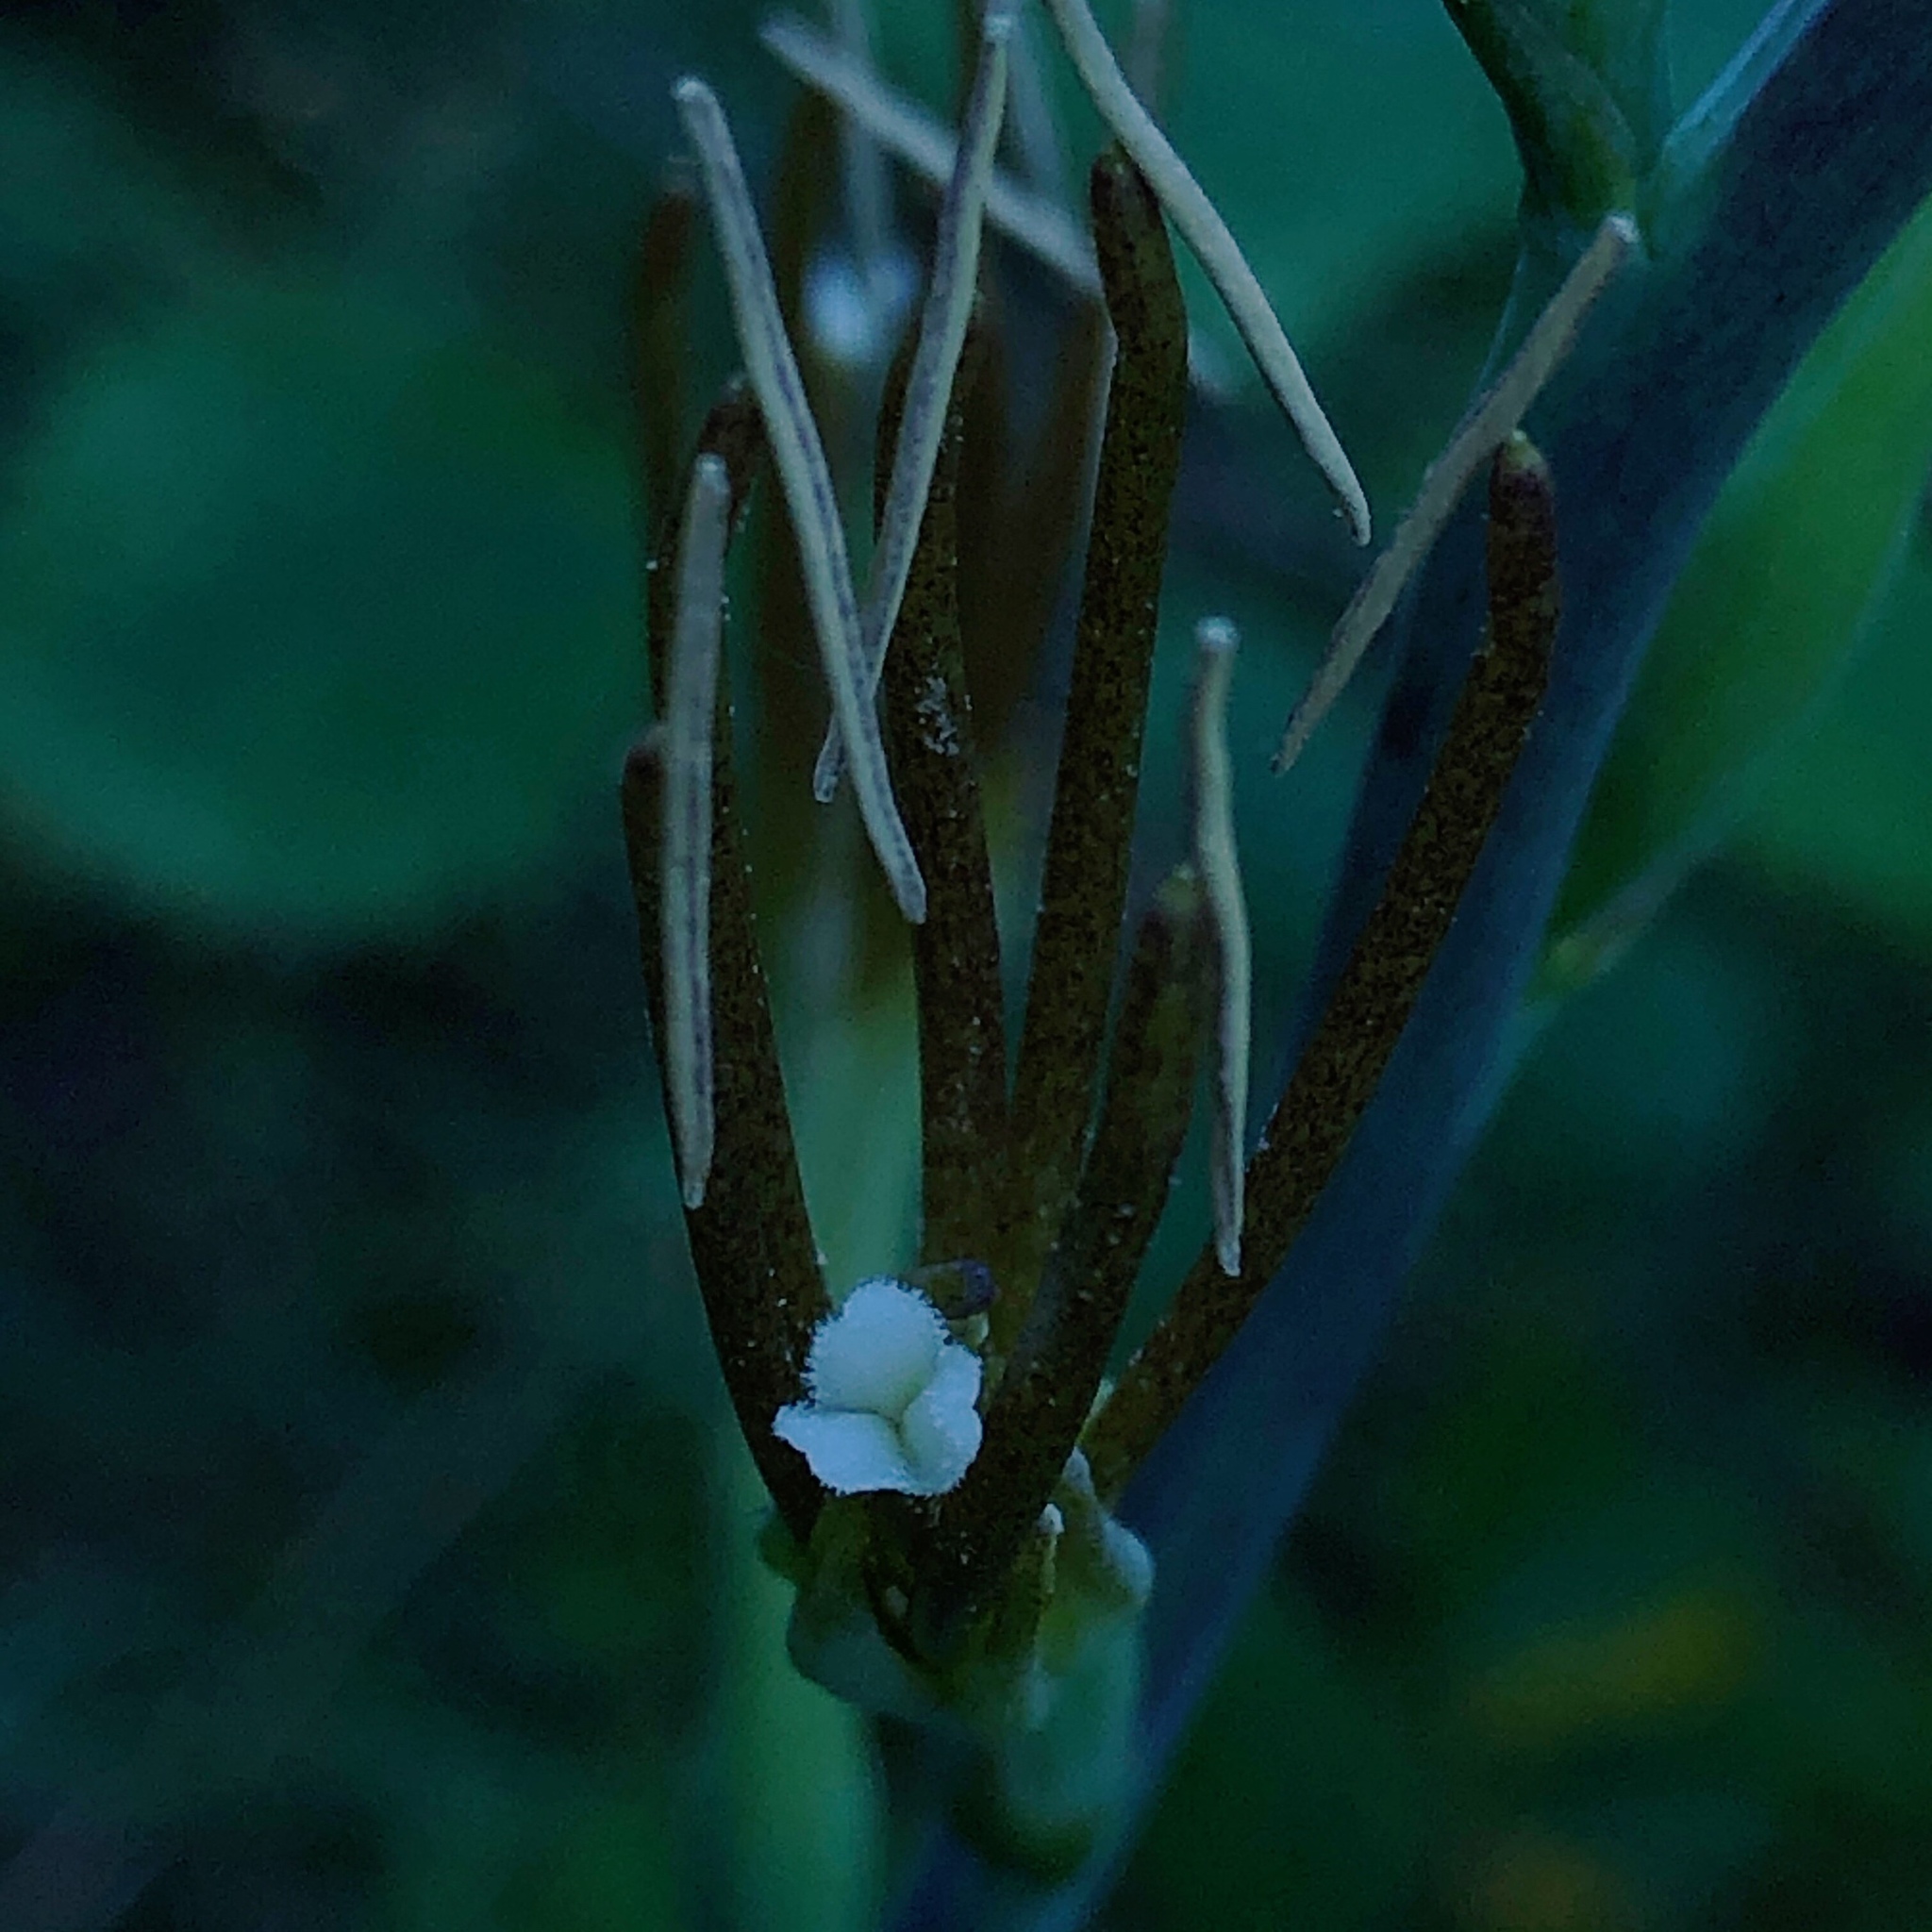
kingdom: Plantae
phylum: Tracheophyta
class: Liliopsida
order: Asparagales
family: Asparagaceae
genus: Agave
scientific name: Agave virginica
